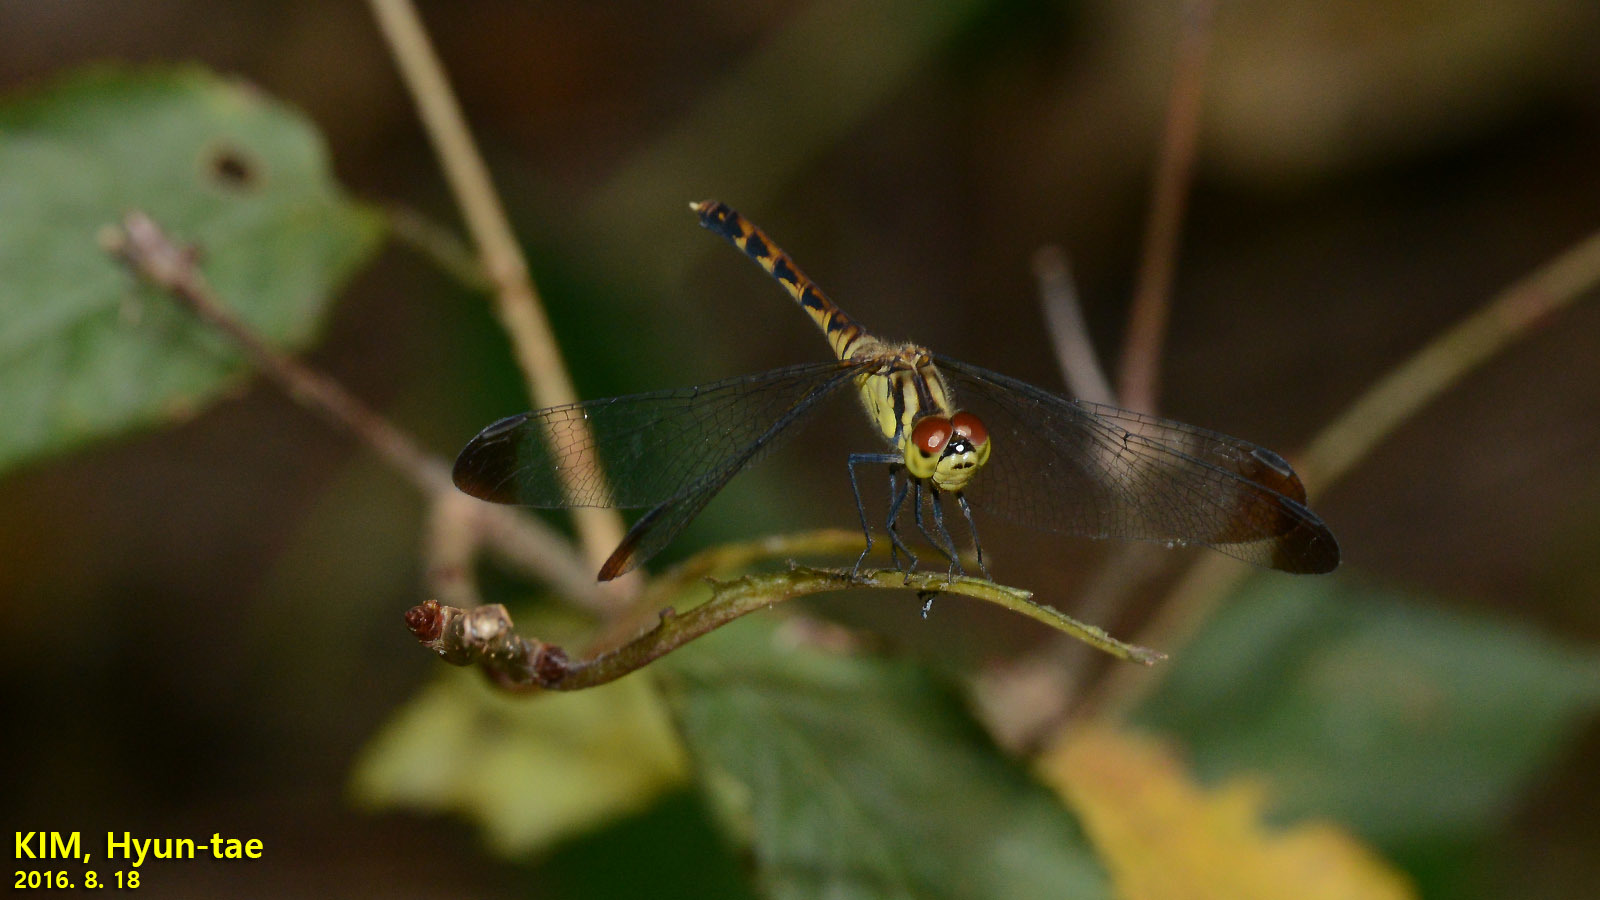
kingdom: Animalia
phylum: Arthropoda
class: Insecta
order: Odonata
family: Libellulidae
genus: Sympetrum
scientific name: Sympetrum eroticum
